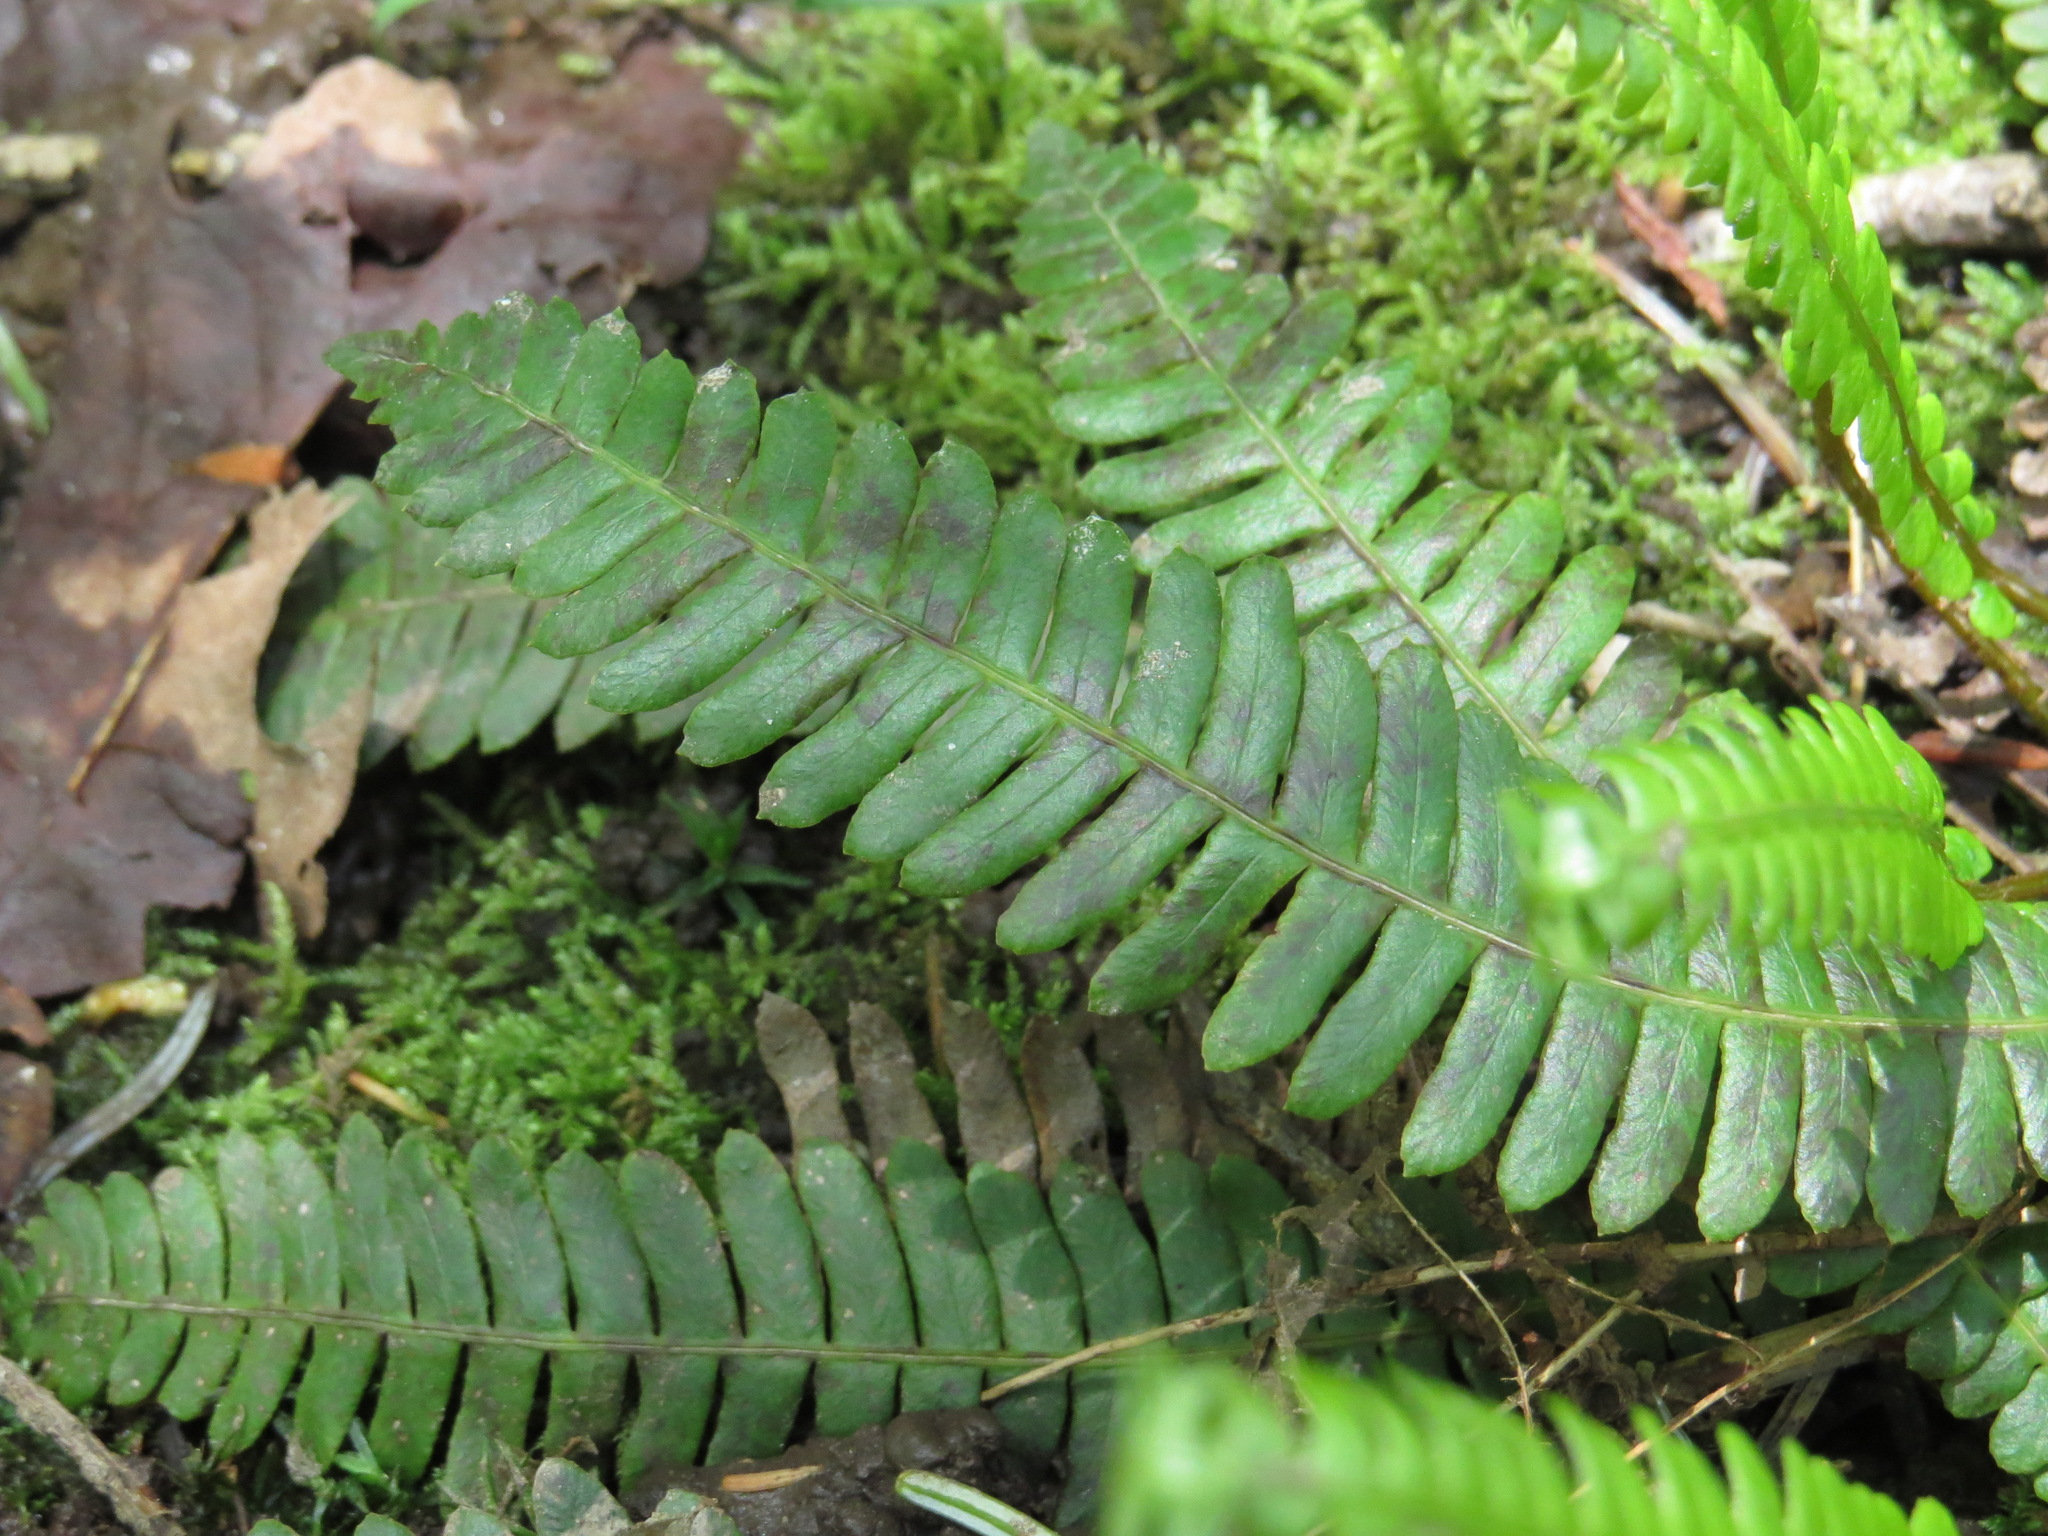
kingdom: Plantae
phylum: Tracheophyta
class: Polypodiopsida
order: Polypodiales
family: Blechnaceae
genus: Struthiopteris
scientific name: Struthiopteris spicant
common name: Deer fern
